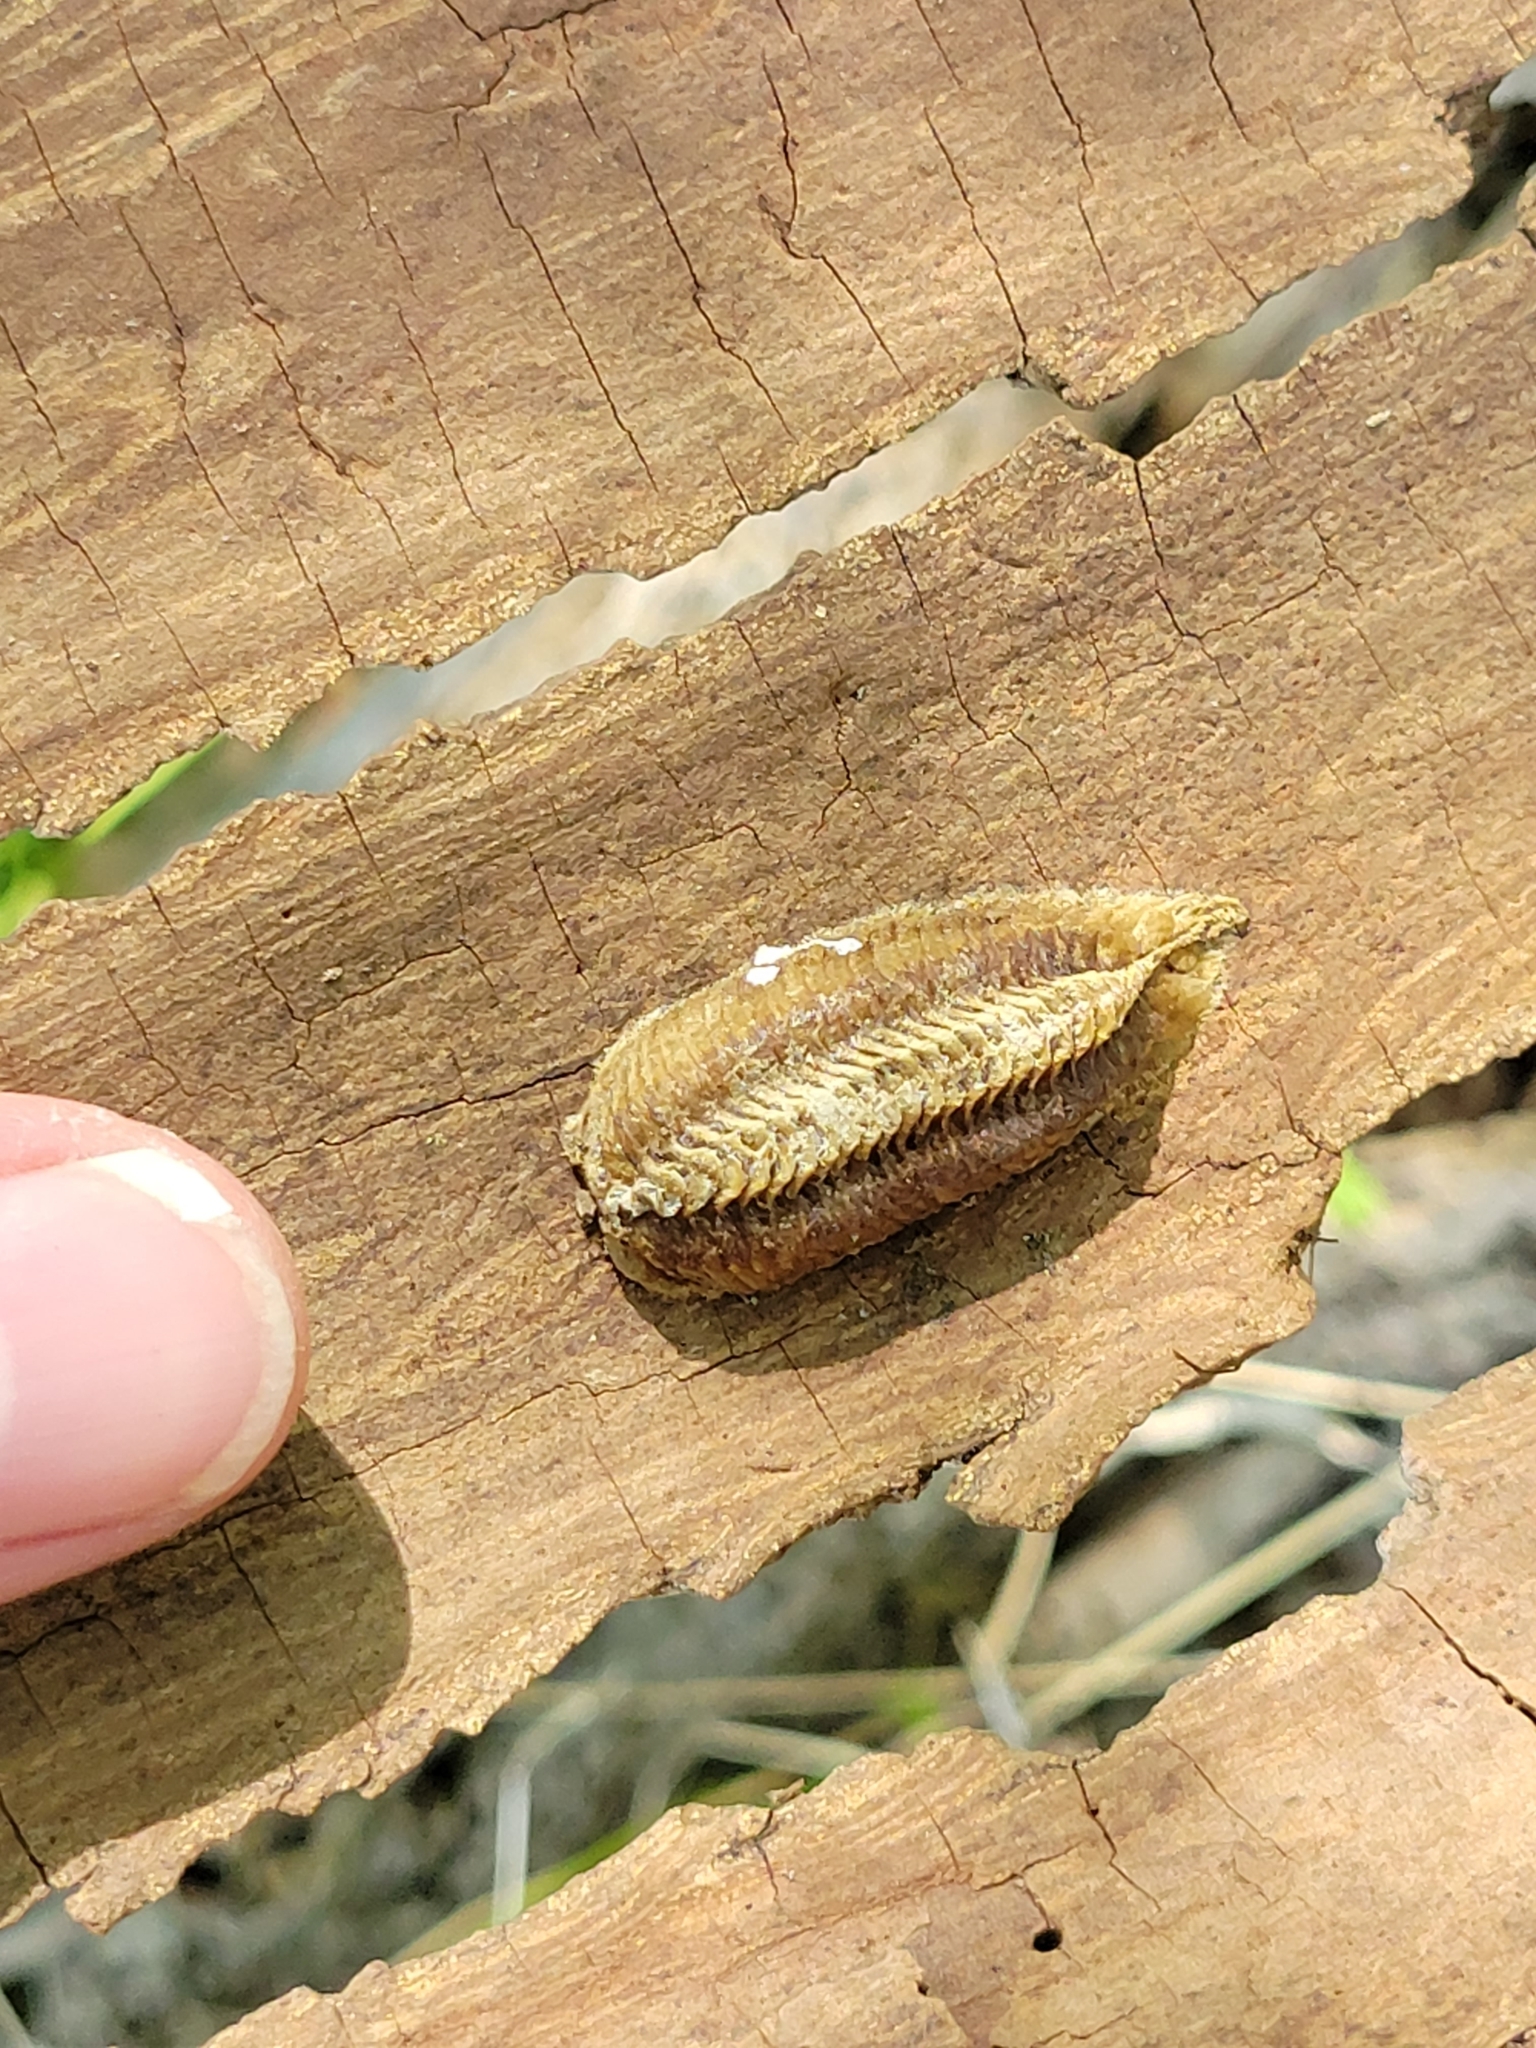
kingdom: Animalia
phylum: Arthropoda
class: Insecta
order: Mantodea
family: Mantidae
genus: Stagmomantis
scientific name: Stagmomantis carolina
